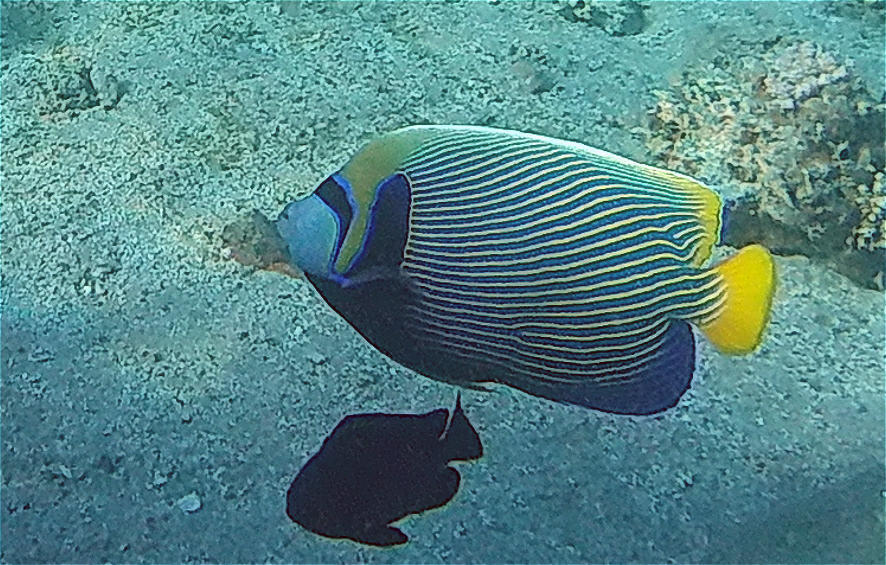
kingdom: Animalia
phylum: Chordata
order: Perciformes
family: Pomacanthidae
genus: Pomacanthus
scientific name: Pomacanthus imperator
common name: Emperor angelfish
